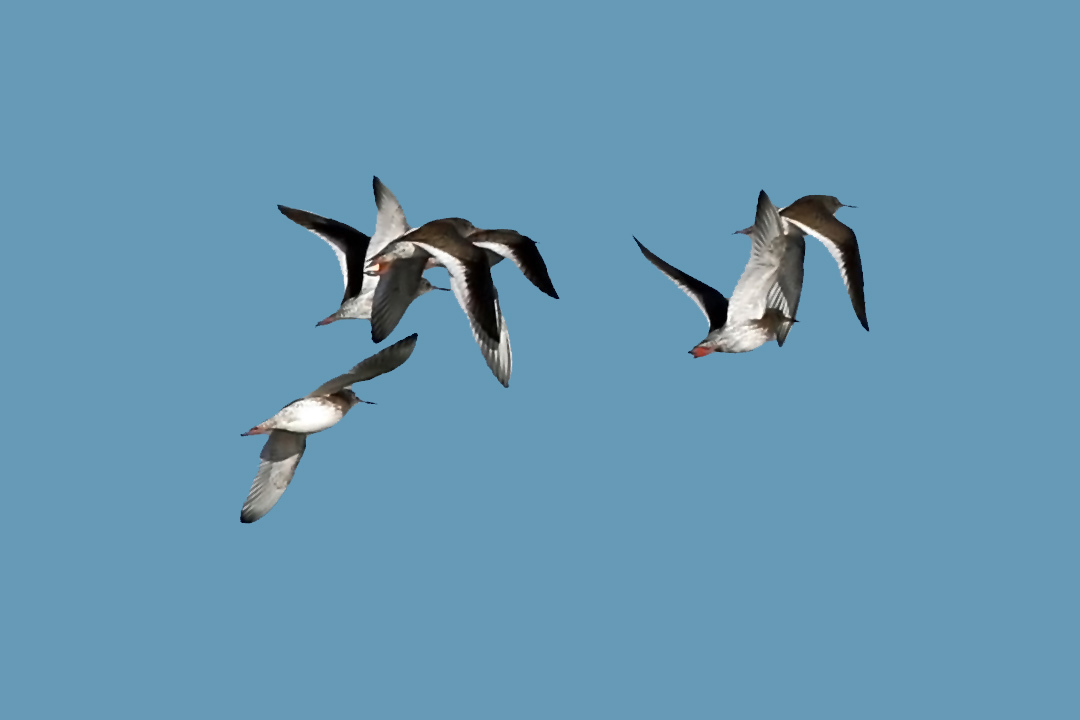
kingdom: Animalia
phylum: Chordata
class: Aves
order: Charadriiformes
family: Scolopacidae
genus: Tringa
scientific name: Tringa totanus
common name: Common redshank
